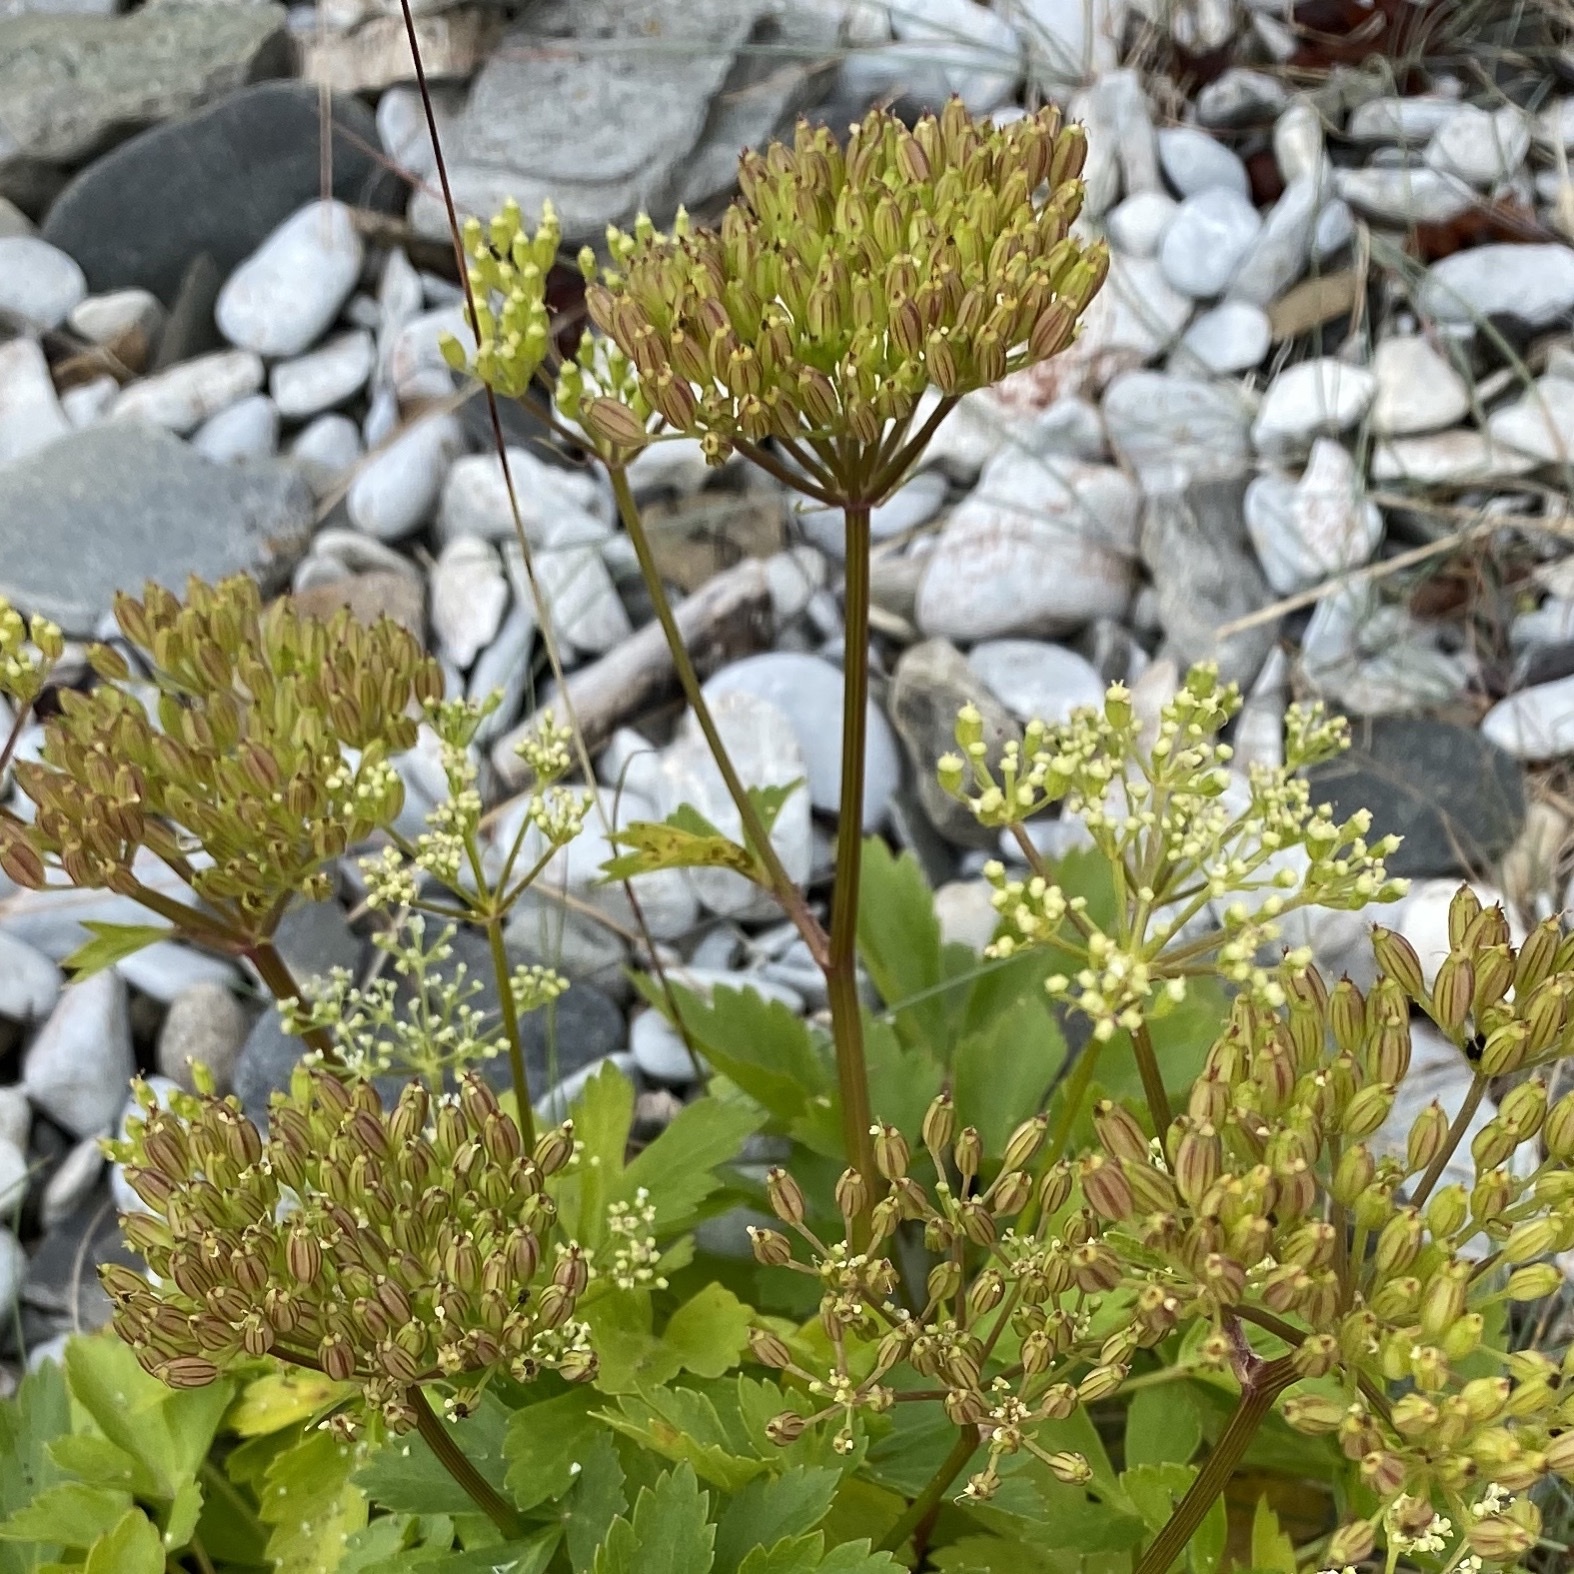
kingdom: Plantae
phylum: Tracheophyta
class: Magnoliopsida
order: Apiales
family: Apiaceae
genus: Ligusticum
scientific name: Ligusticum scothicum
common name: Beach lovage
